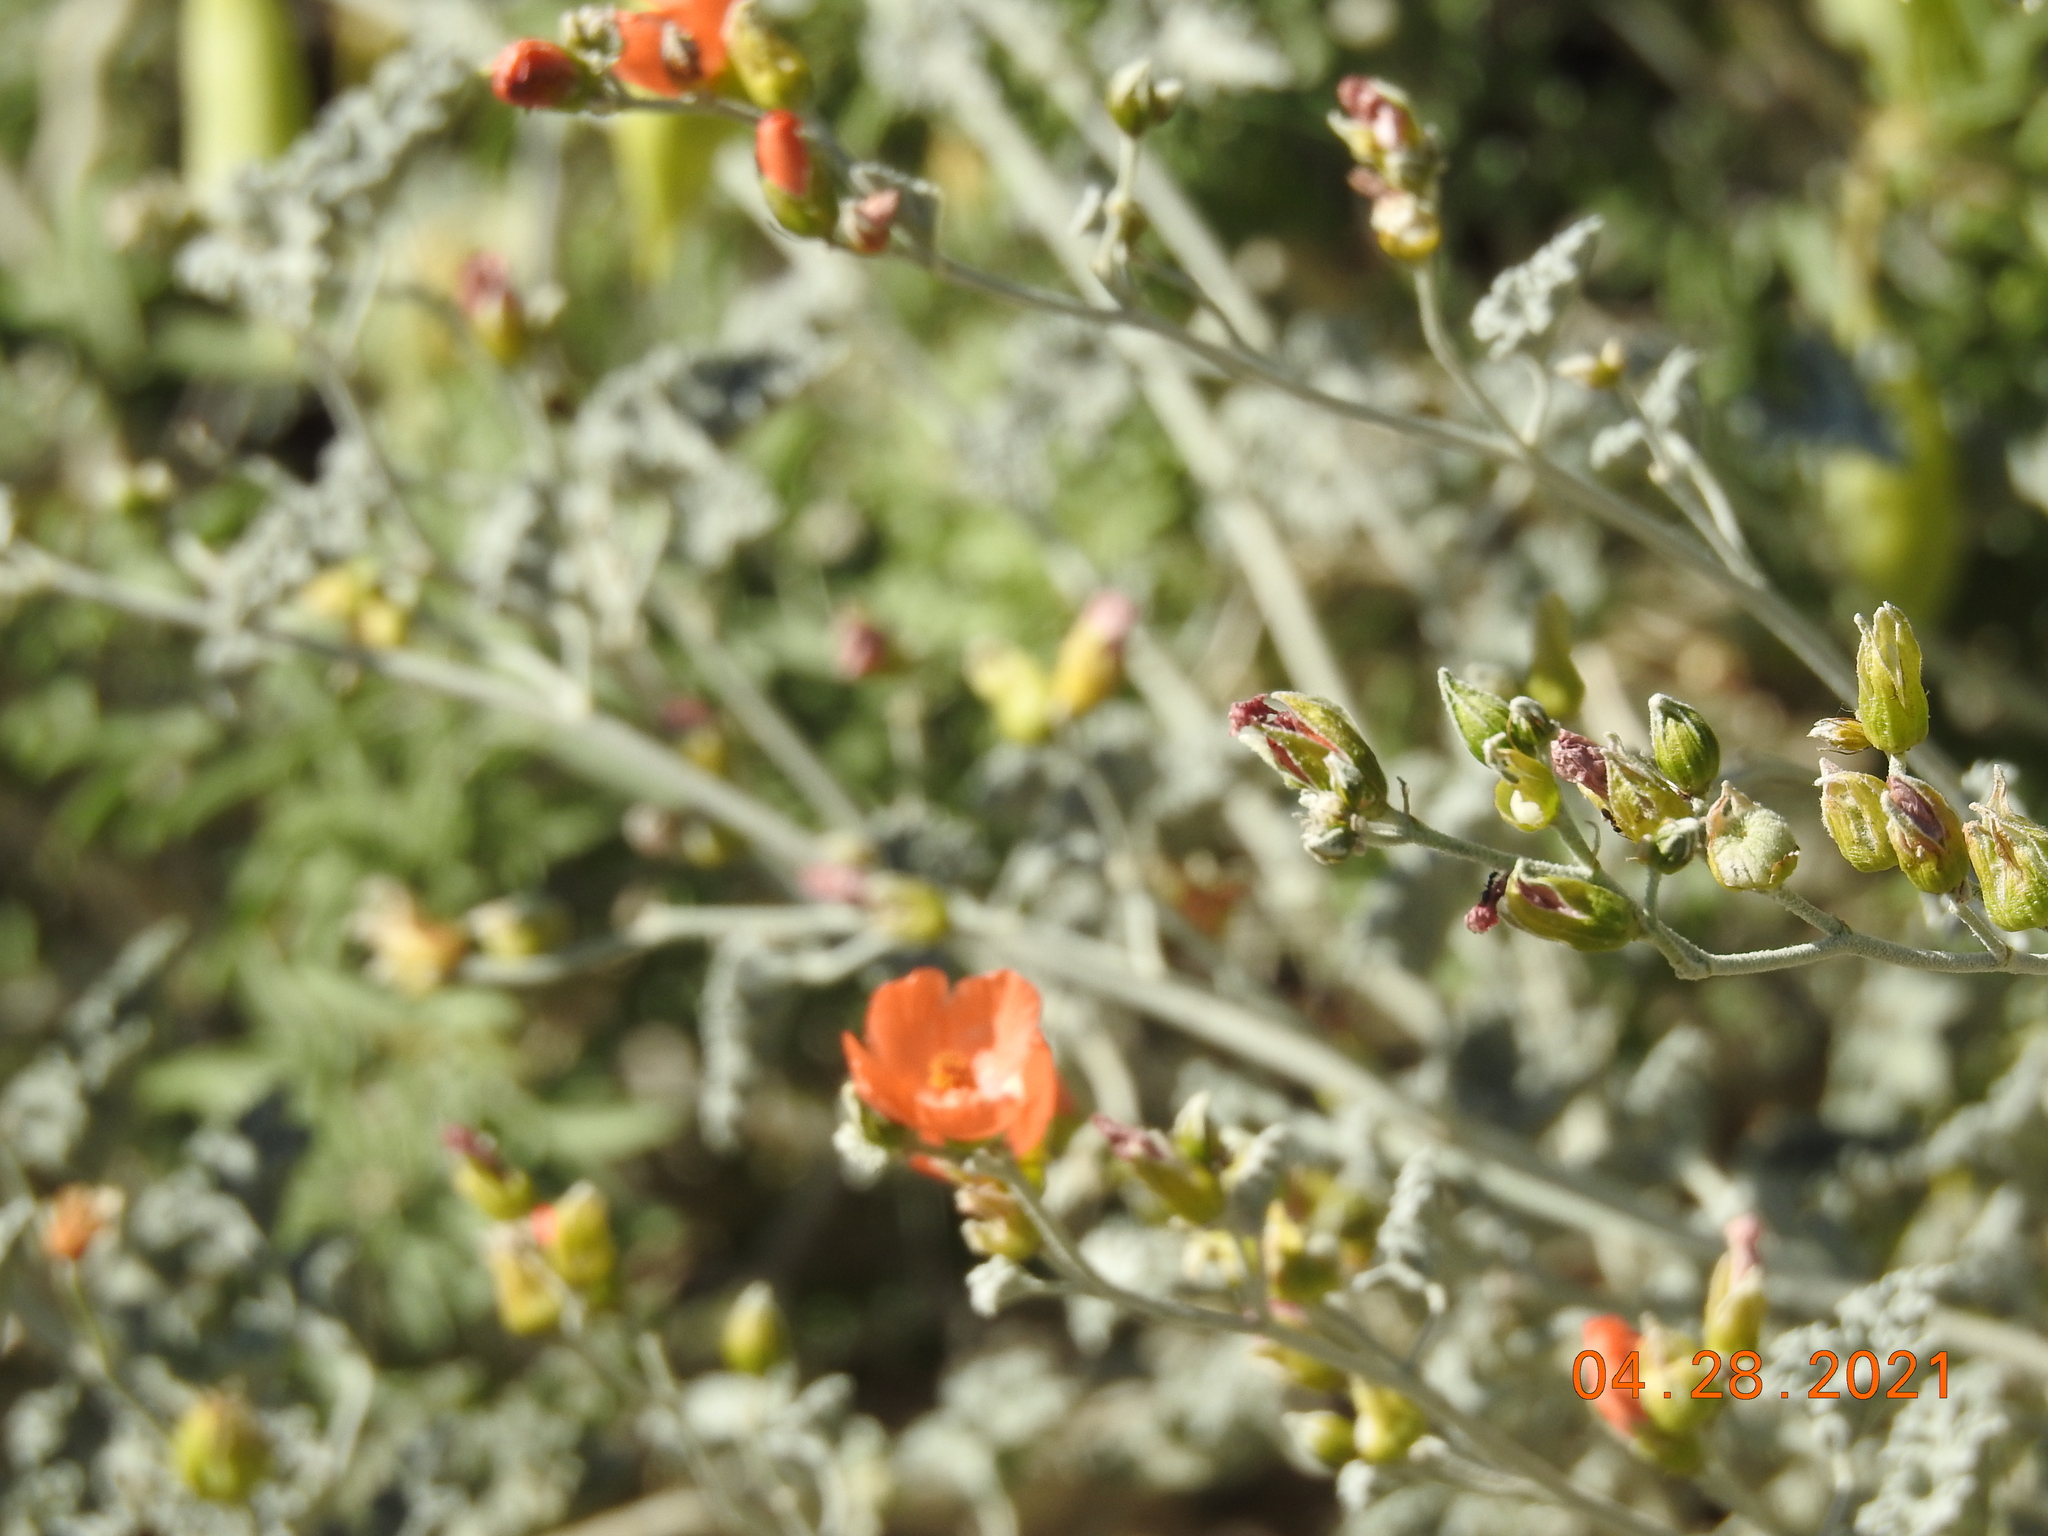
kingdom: Plantae
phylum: Tracheophyta
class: Magnoliopsida
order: Malvales
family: Malvaceae
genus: Sphaeralcea
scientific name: Sphaeralcea ambigua
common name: Apricot globe-mallow
